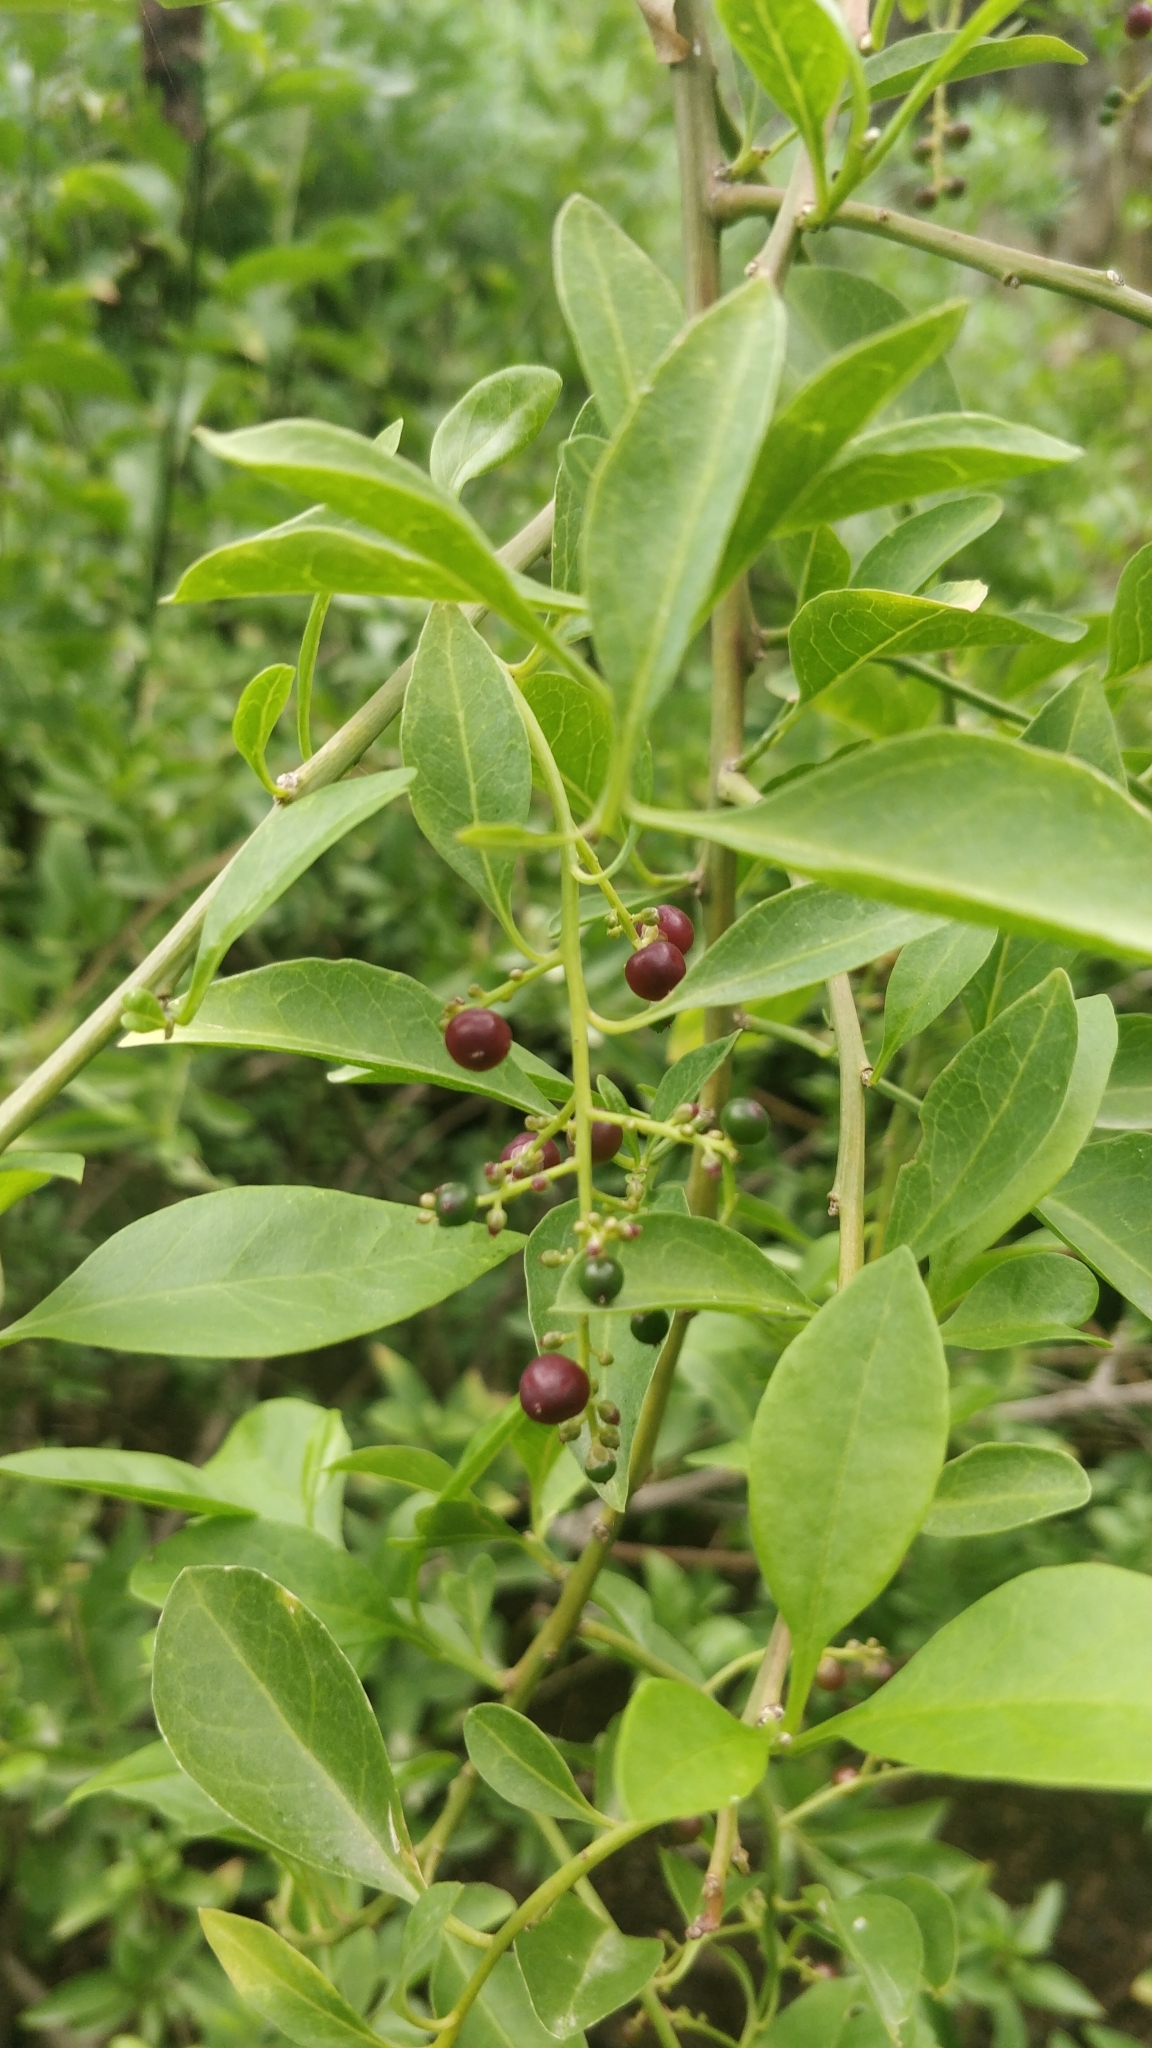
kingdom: Plantae
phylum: Tracheophyta
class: Magnoliopsida
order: Caryophyllales
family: Amaranthaceae
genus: Bosea
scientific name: Bosea yervamora
